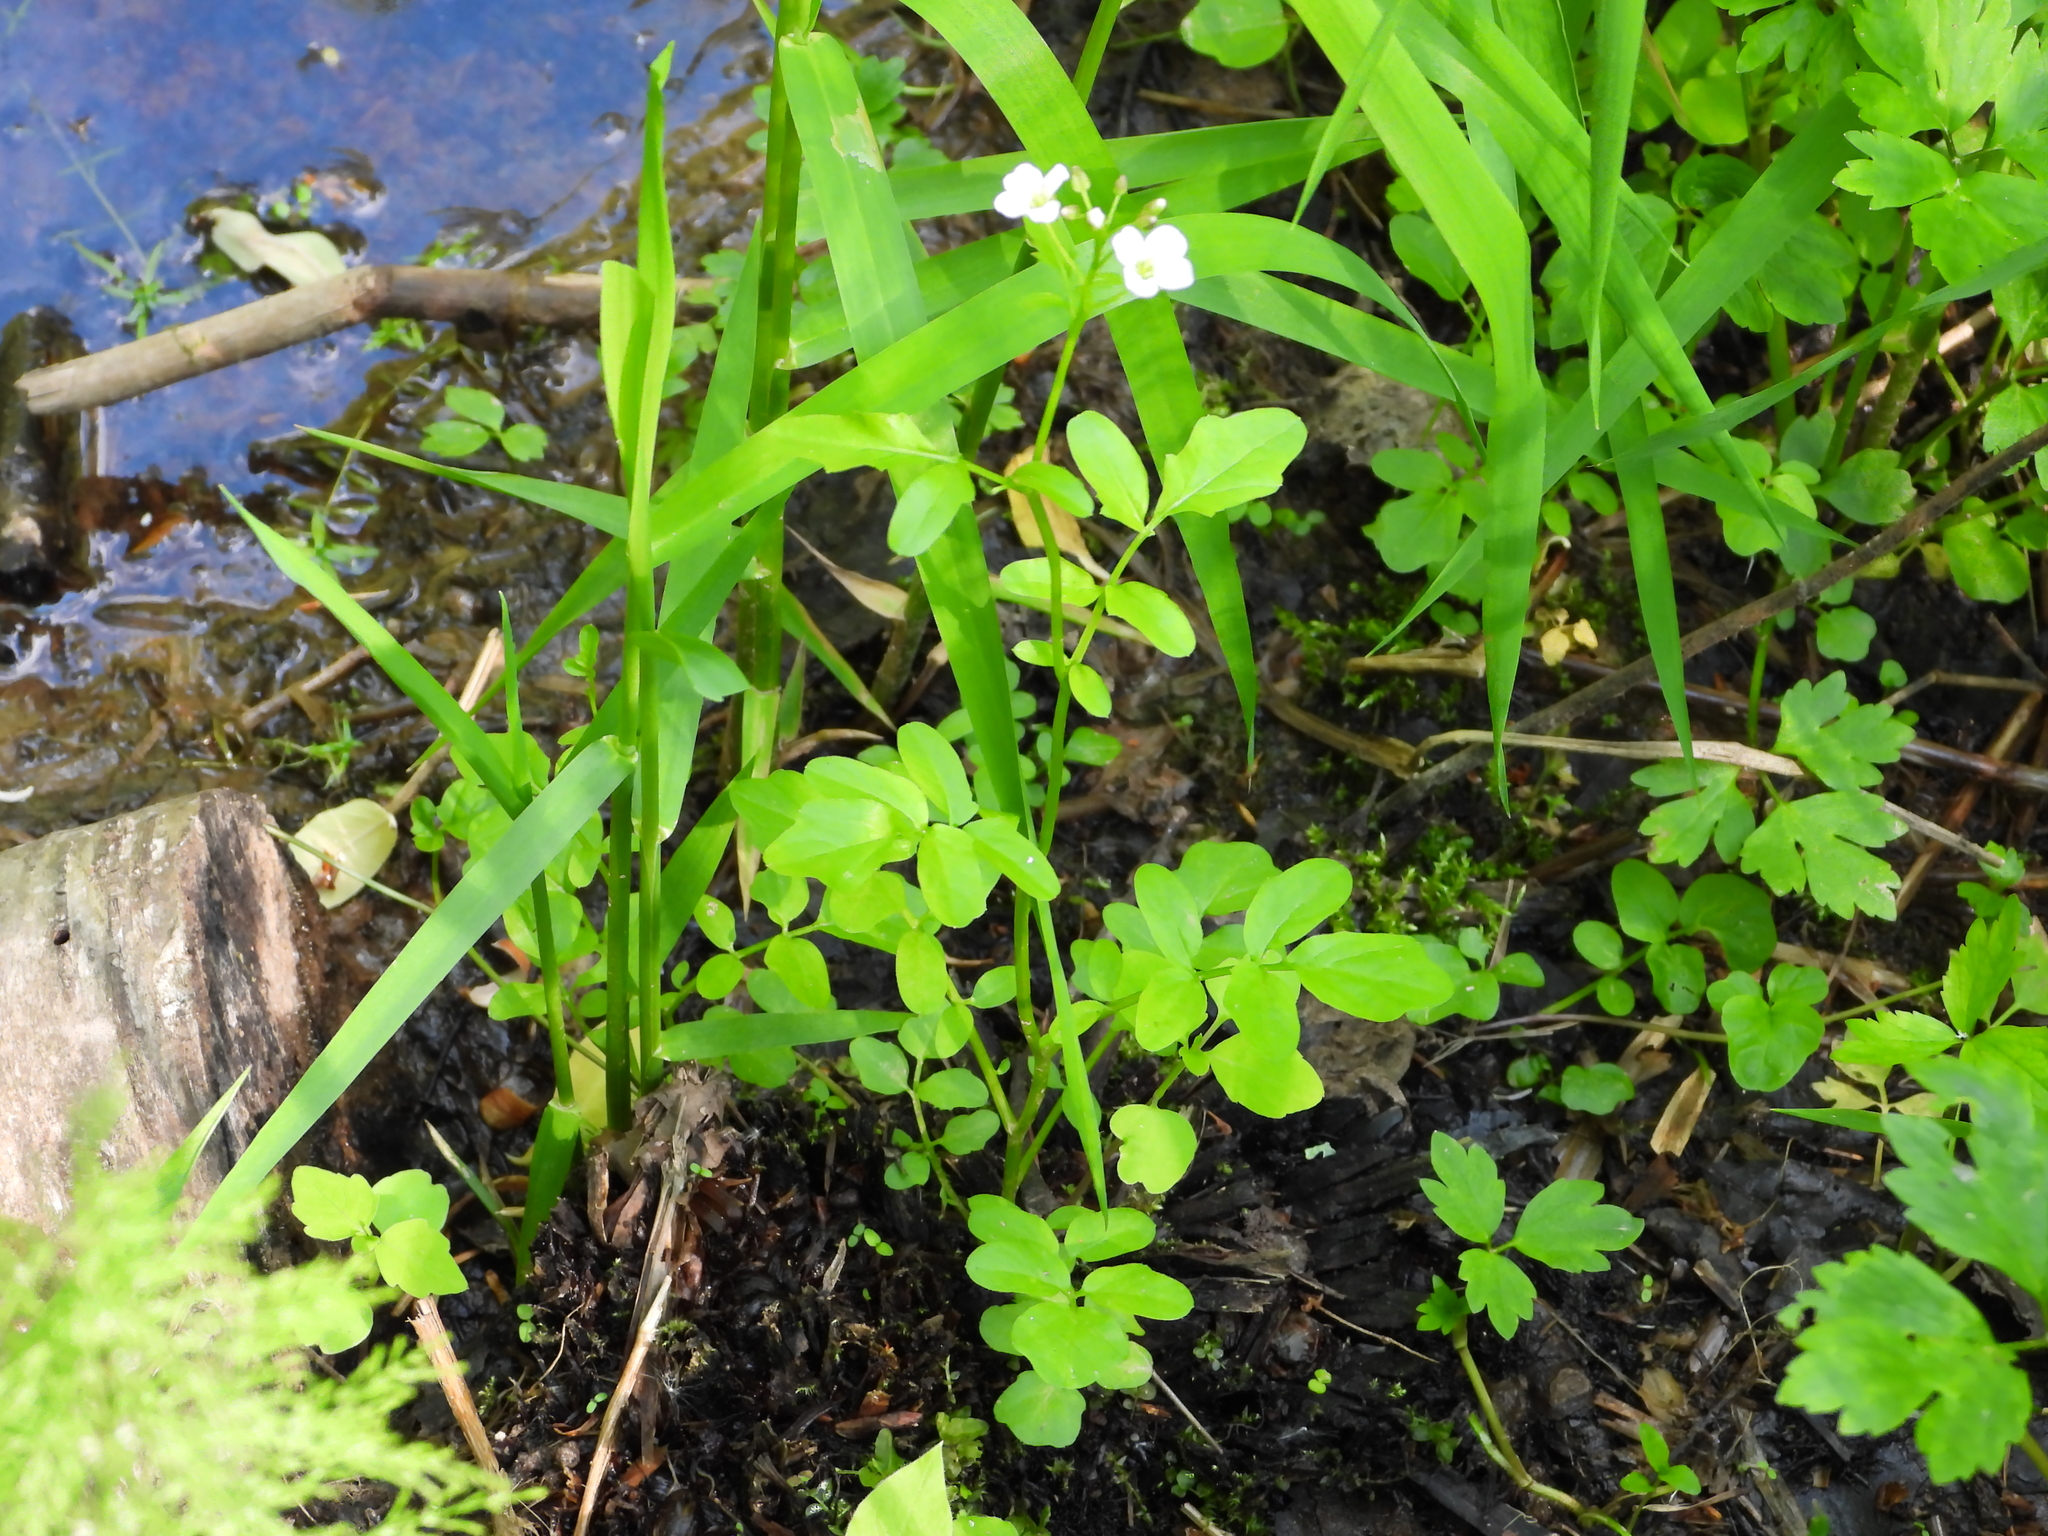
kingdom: Plantae
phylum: Tracheophyta
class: Magnoliopsida
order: Brassicales
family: Brassicaceae
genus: Cardamine
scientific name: Cardamine amara
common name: Large bitter-cress
